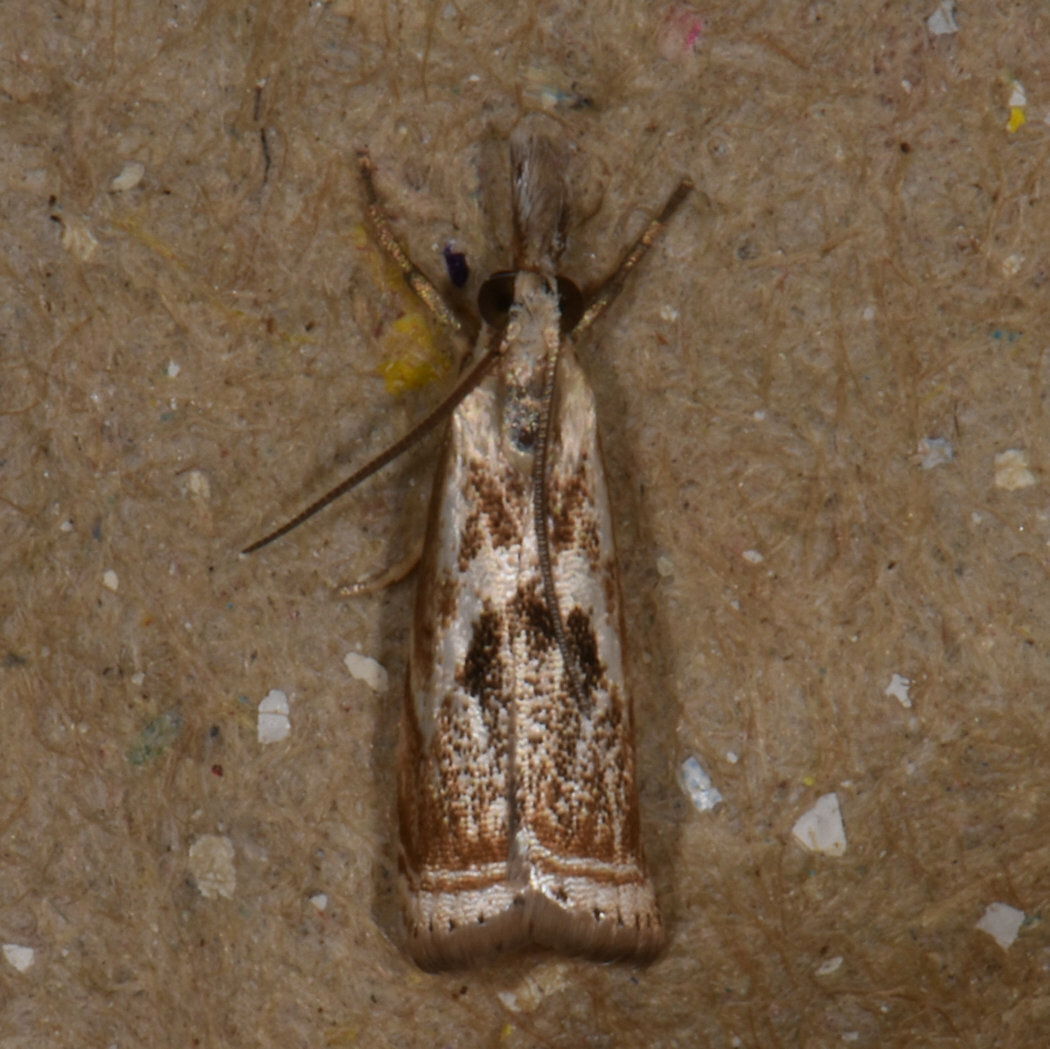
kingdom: Animalia
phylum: Arthropoda
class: Insecta
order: Lepidoptera
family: Crambidae
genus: Microcrambus
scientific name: Microcrambus elegans
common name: Elegant grass-veneer
